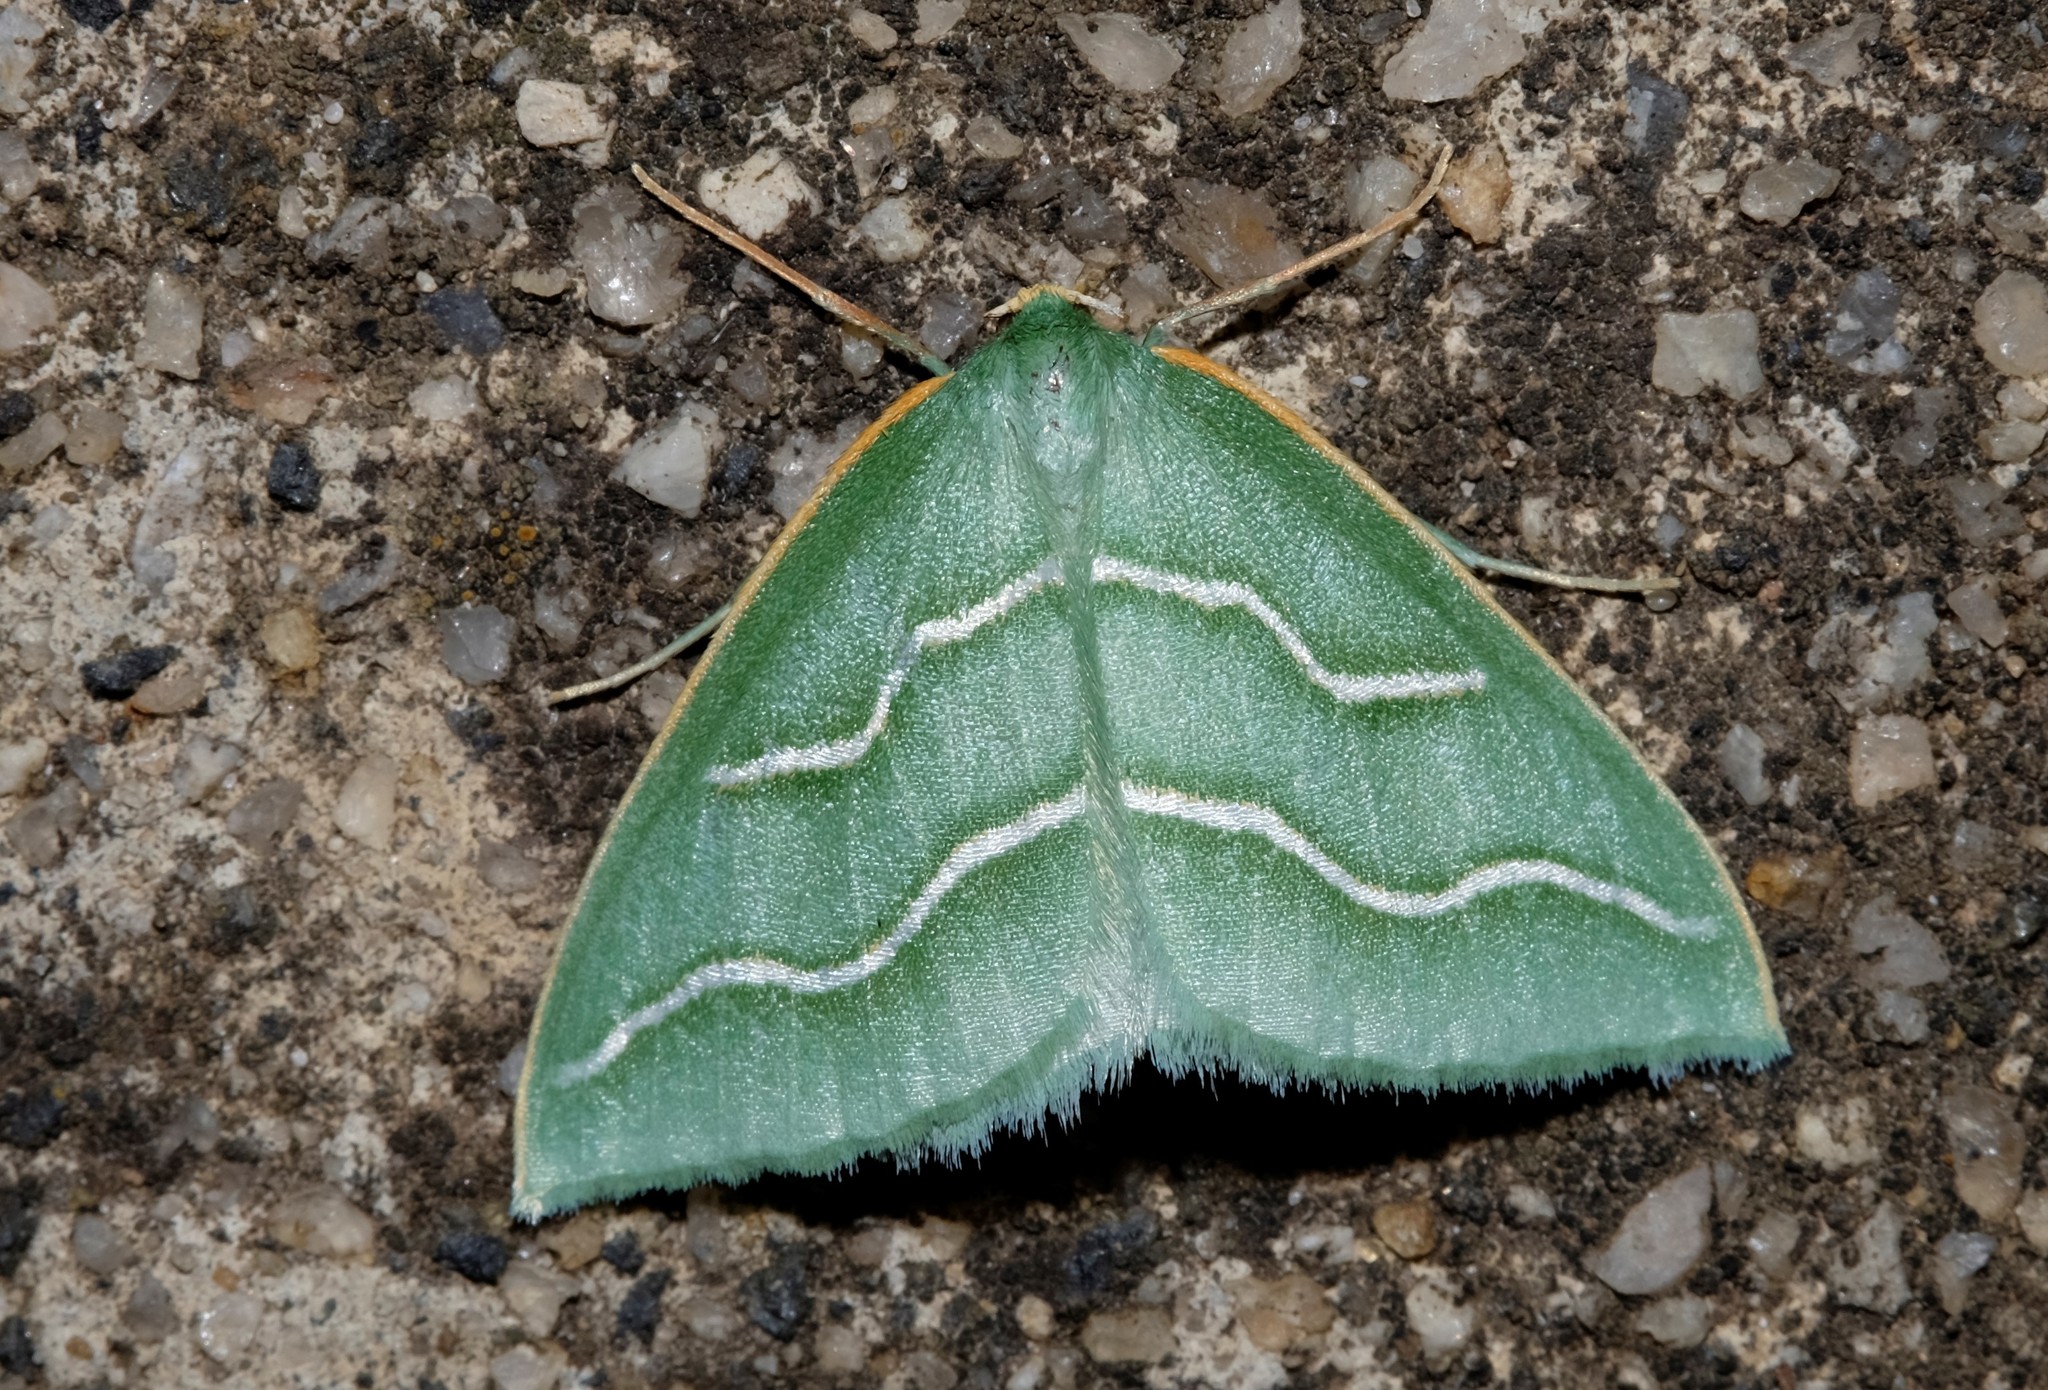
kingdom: Animalia
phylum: Arthropoda
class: Insecta
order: Lepidoptera
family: Geometridae
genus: Euloxia
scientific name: Euloxia meandraria
